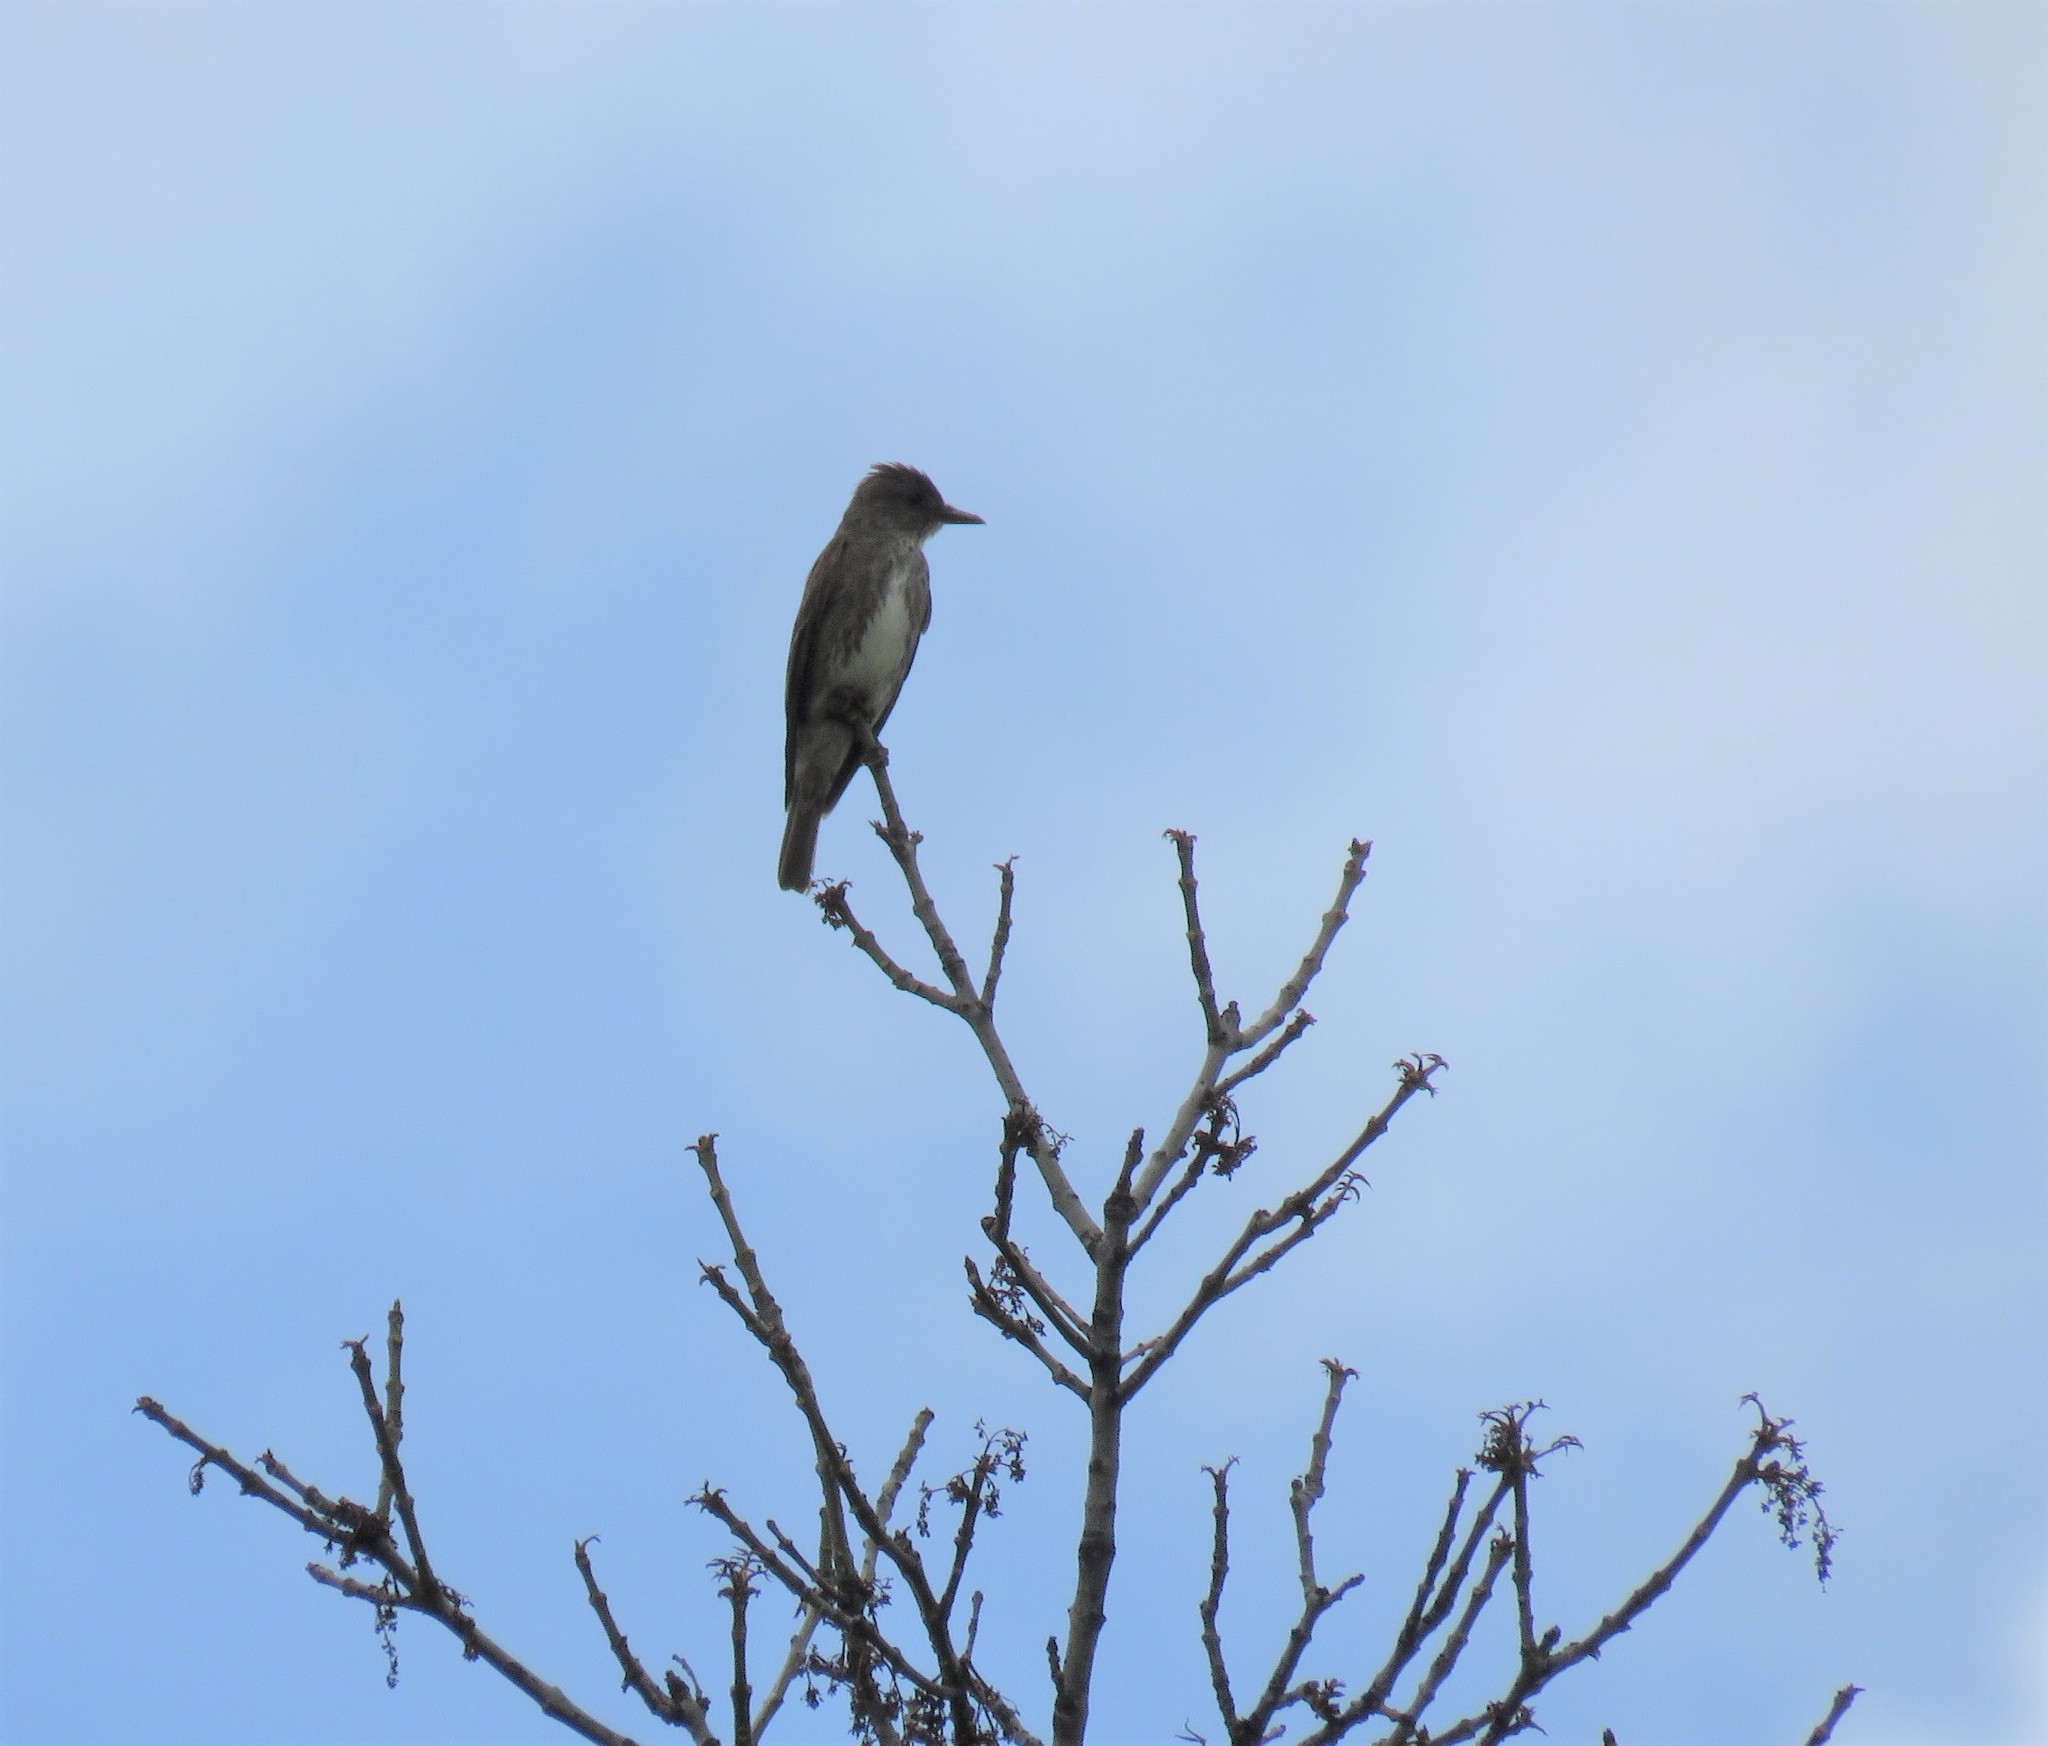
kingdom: Animalia
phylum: Chordata
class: Aves
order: Passeriformes
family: Tyrannidae
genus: Contopus
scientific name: Contopus cooperi
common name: Olive-sided flycatcher
